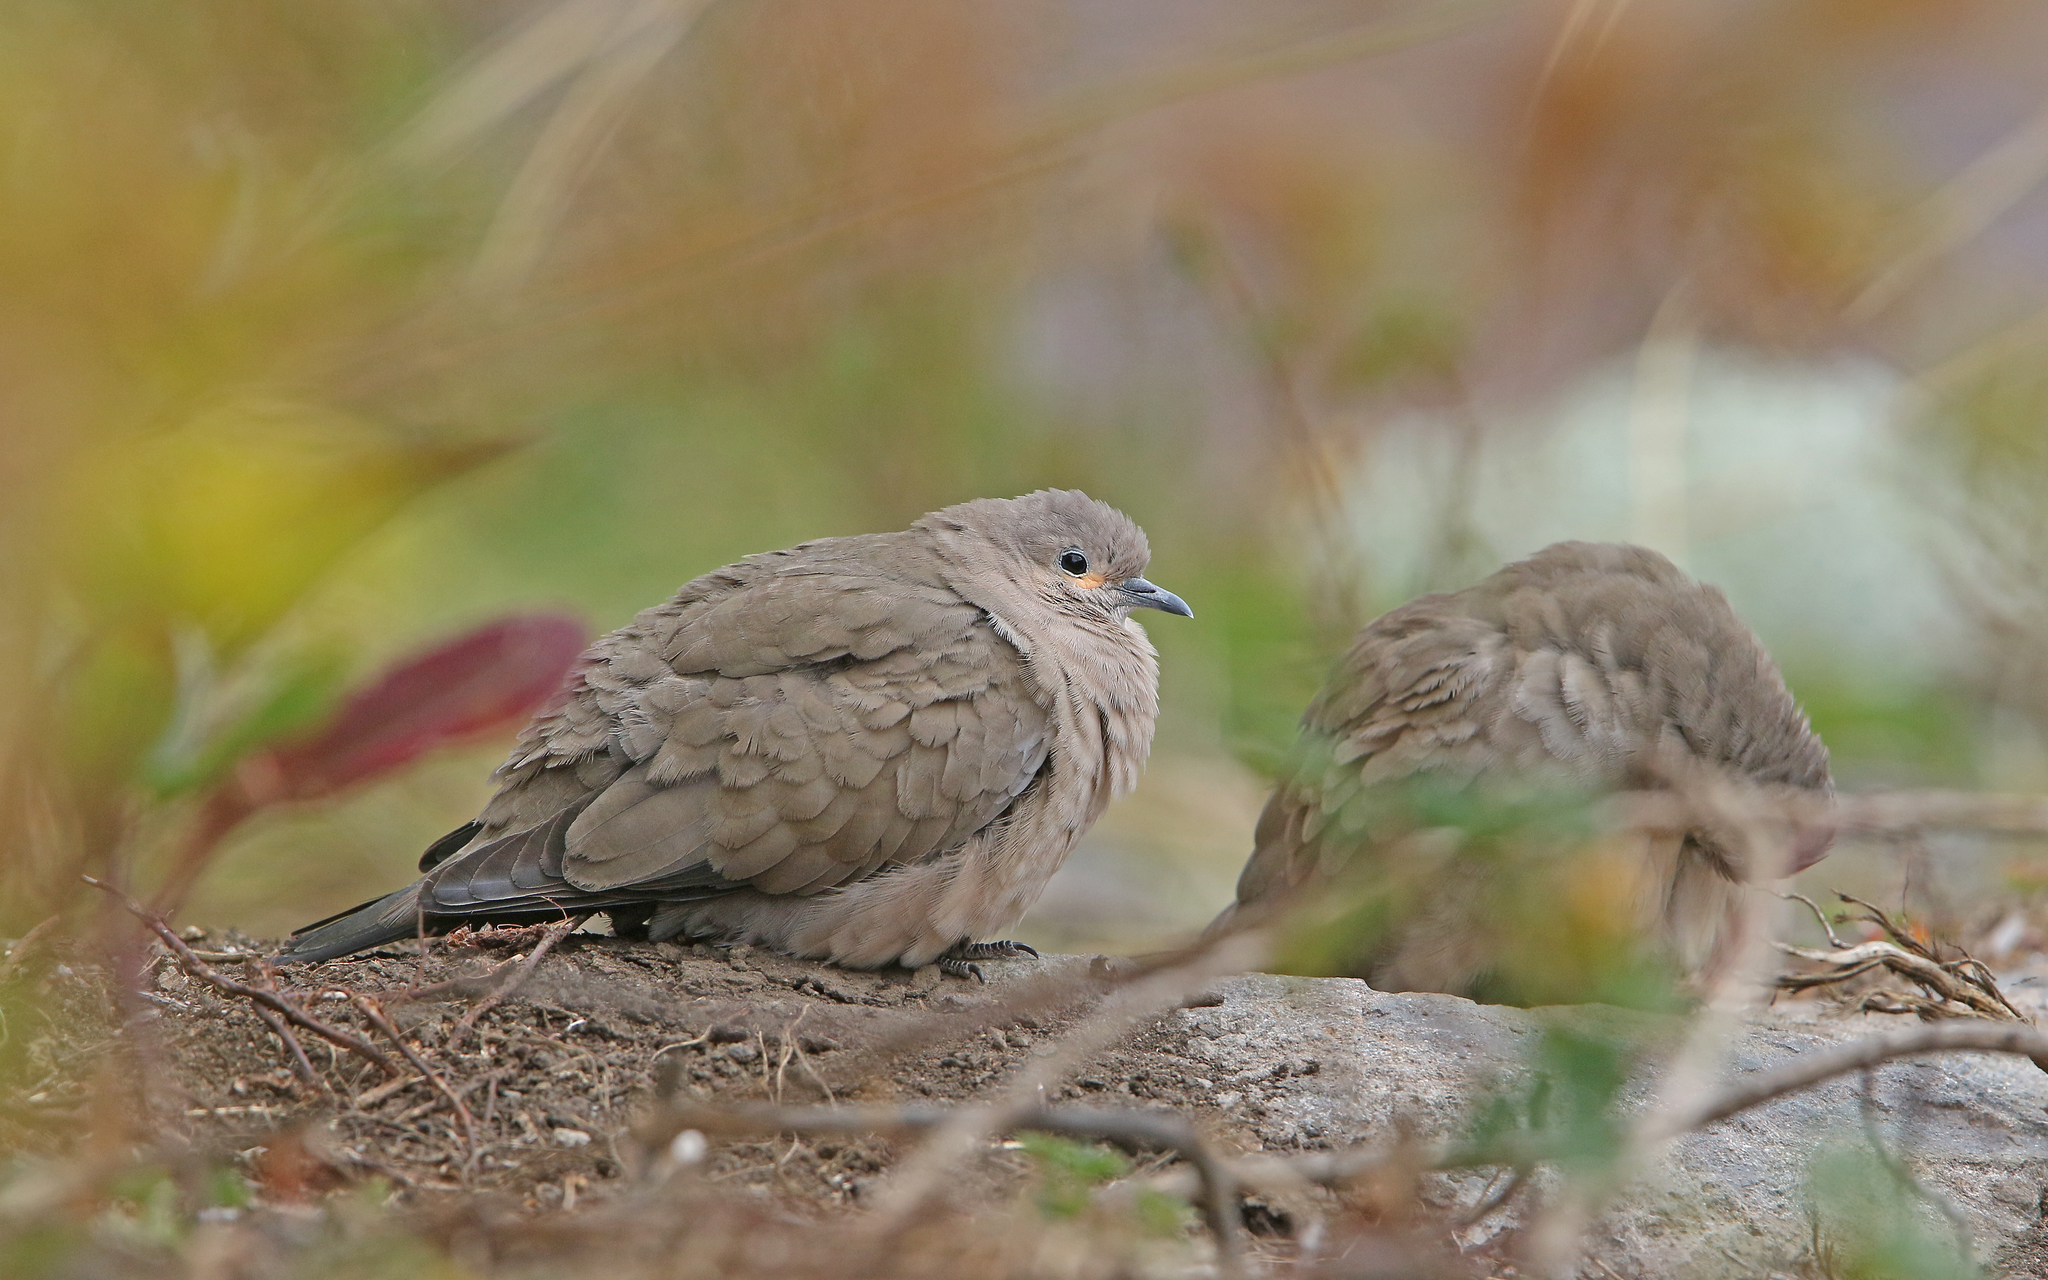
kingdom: Animalia
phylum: Chordata
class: Aves
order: Columbiformes
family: Columbidae
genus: Metriopelia
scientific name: Metriopelia melanoptera
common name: Black-winged ground dove
